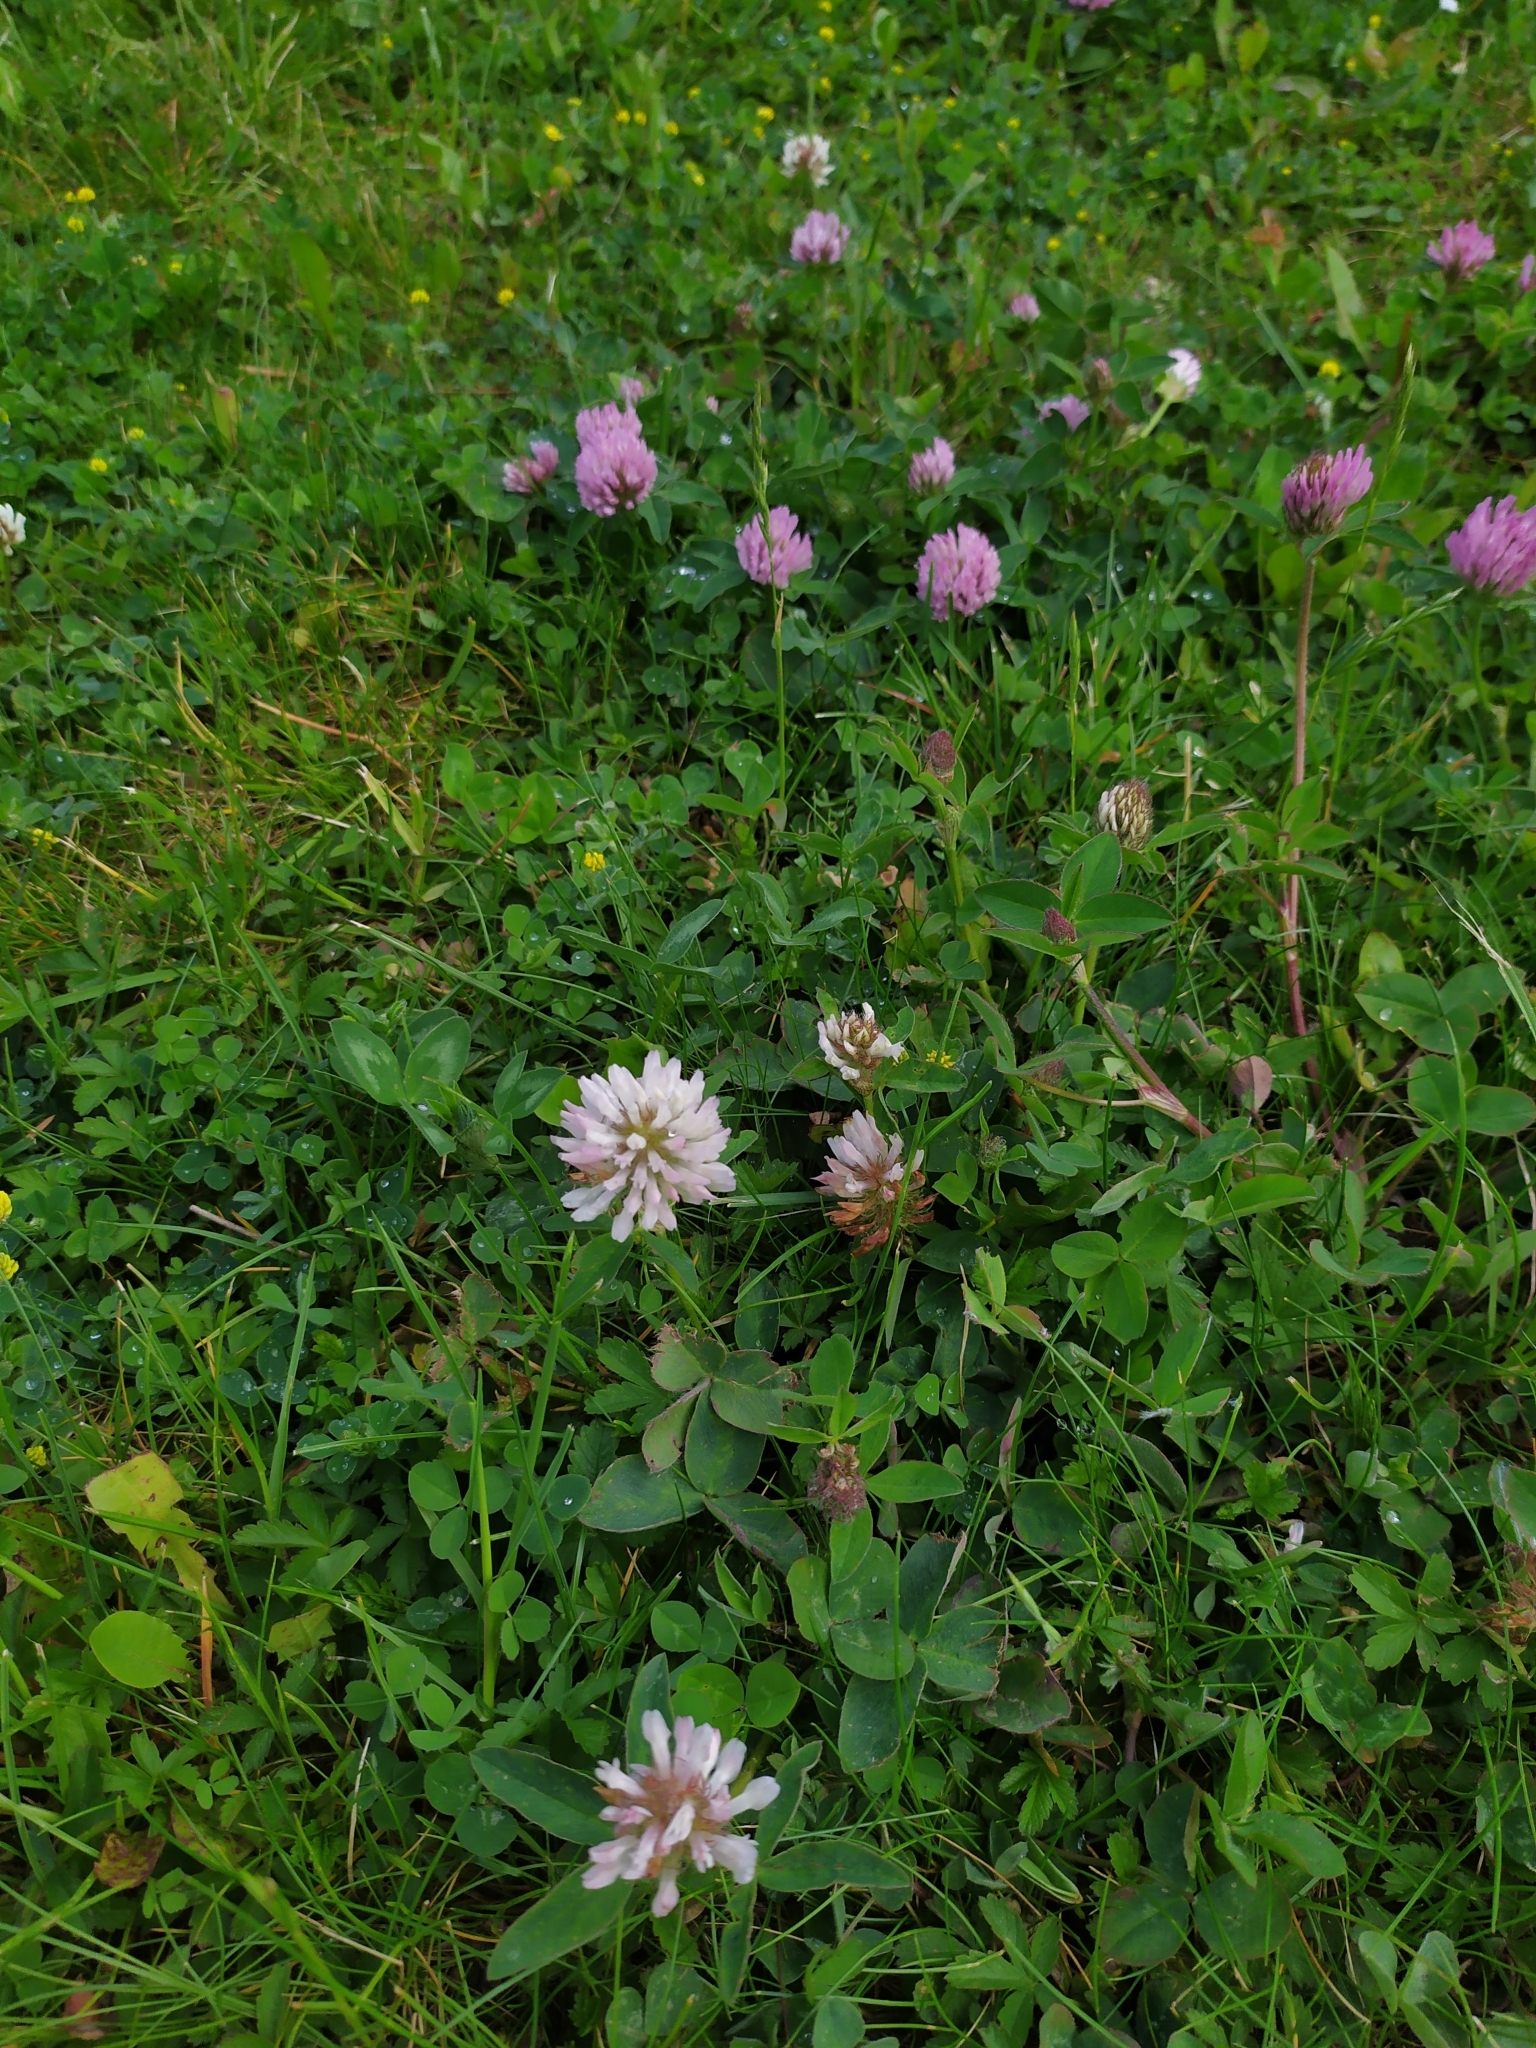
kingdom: Plantae
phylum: Tracheophyta
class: Magnoliopsida
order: Fabales
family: Fabaceae
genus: Trifolium
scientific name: Trifolium pratense
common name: Red clover
